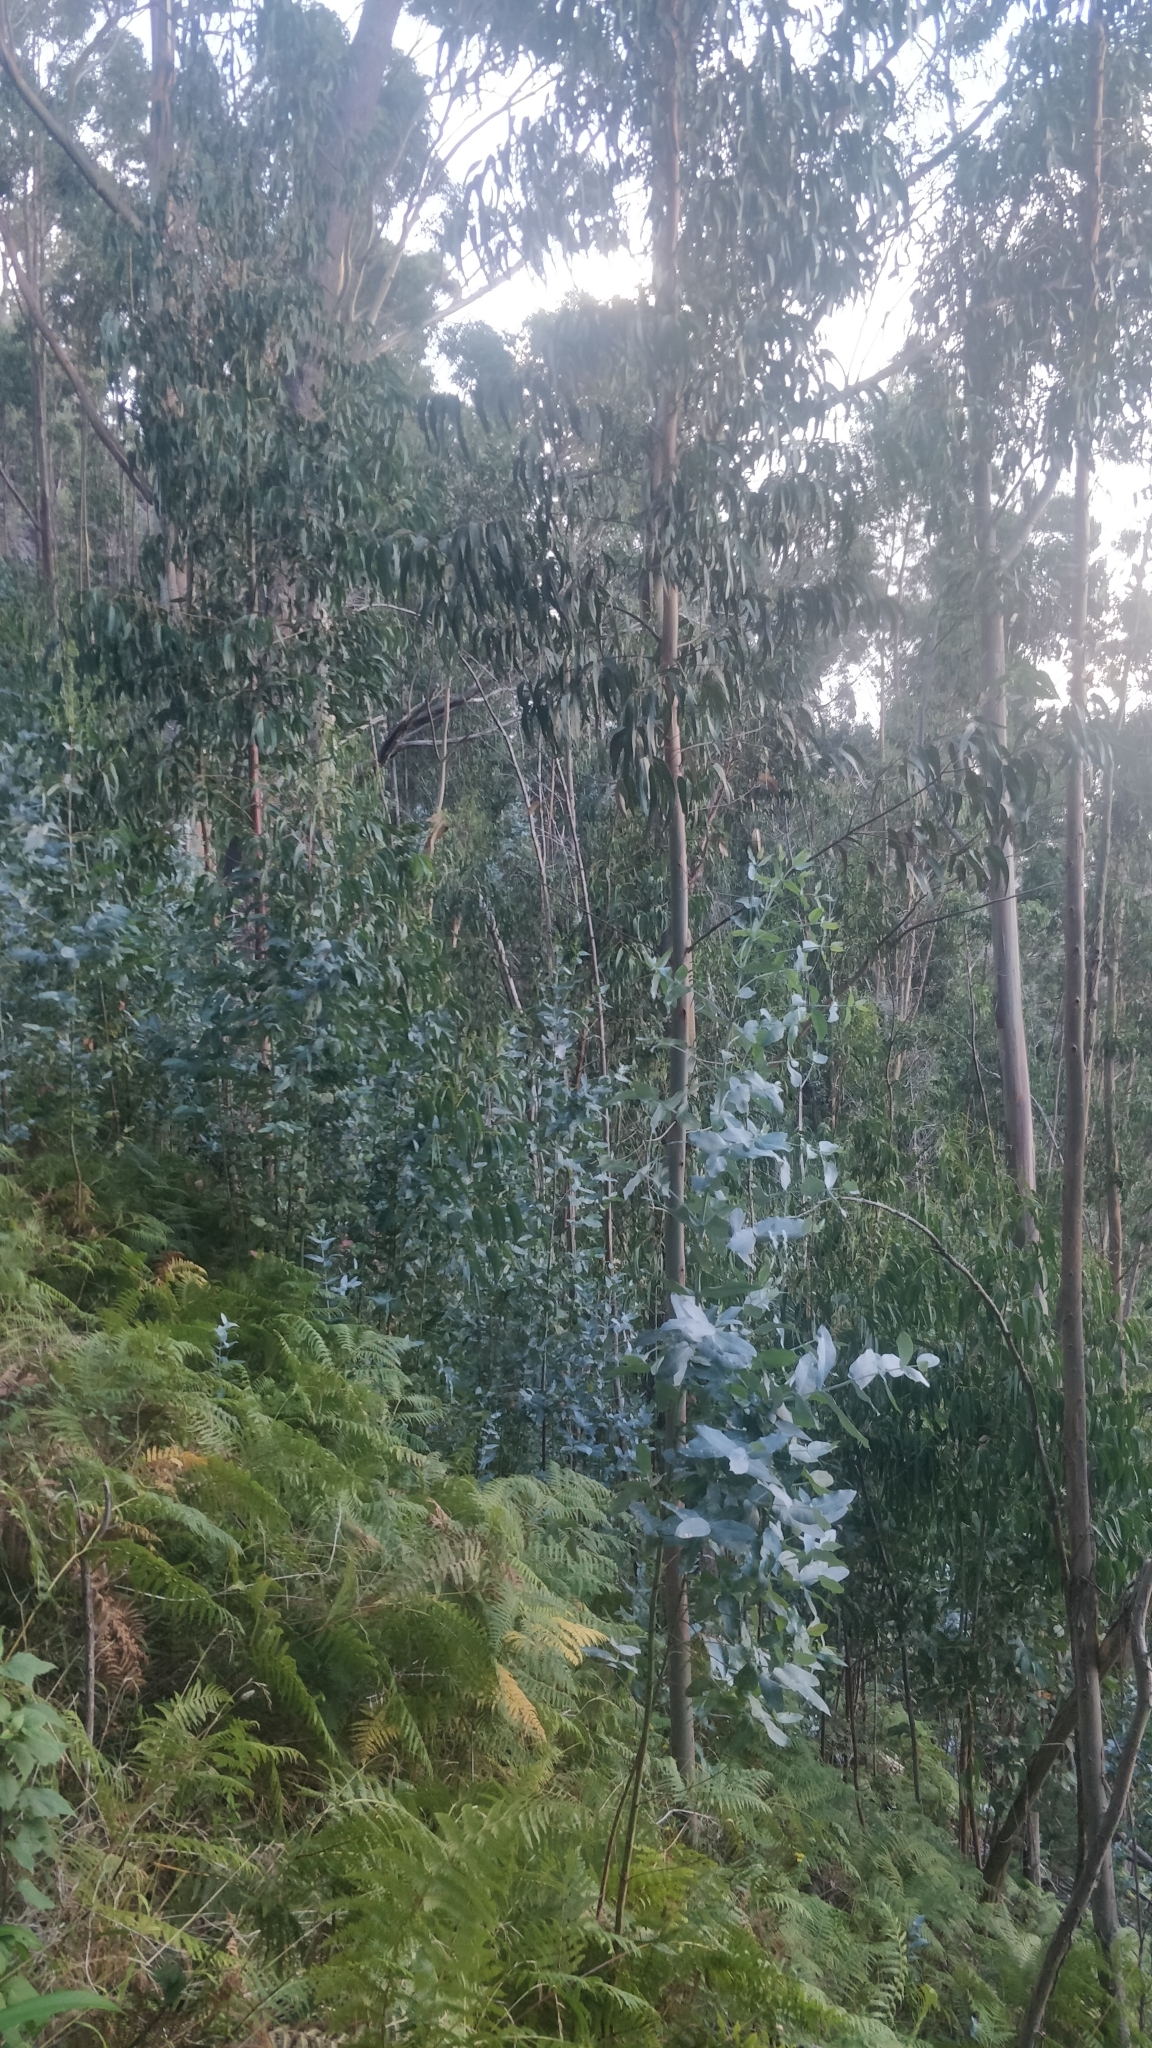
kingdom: Plantae
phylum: Tracheophyta
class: Magnoliopsida
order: Myrtales
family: Myrtaceae
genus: Eucalyptus
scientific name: Eucalyptus globulus
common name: Southern blue-gum
